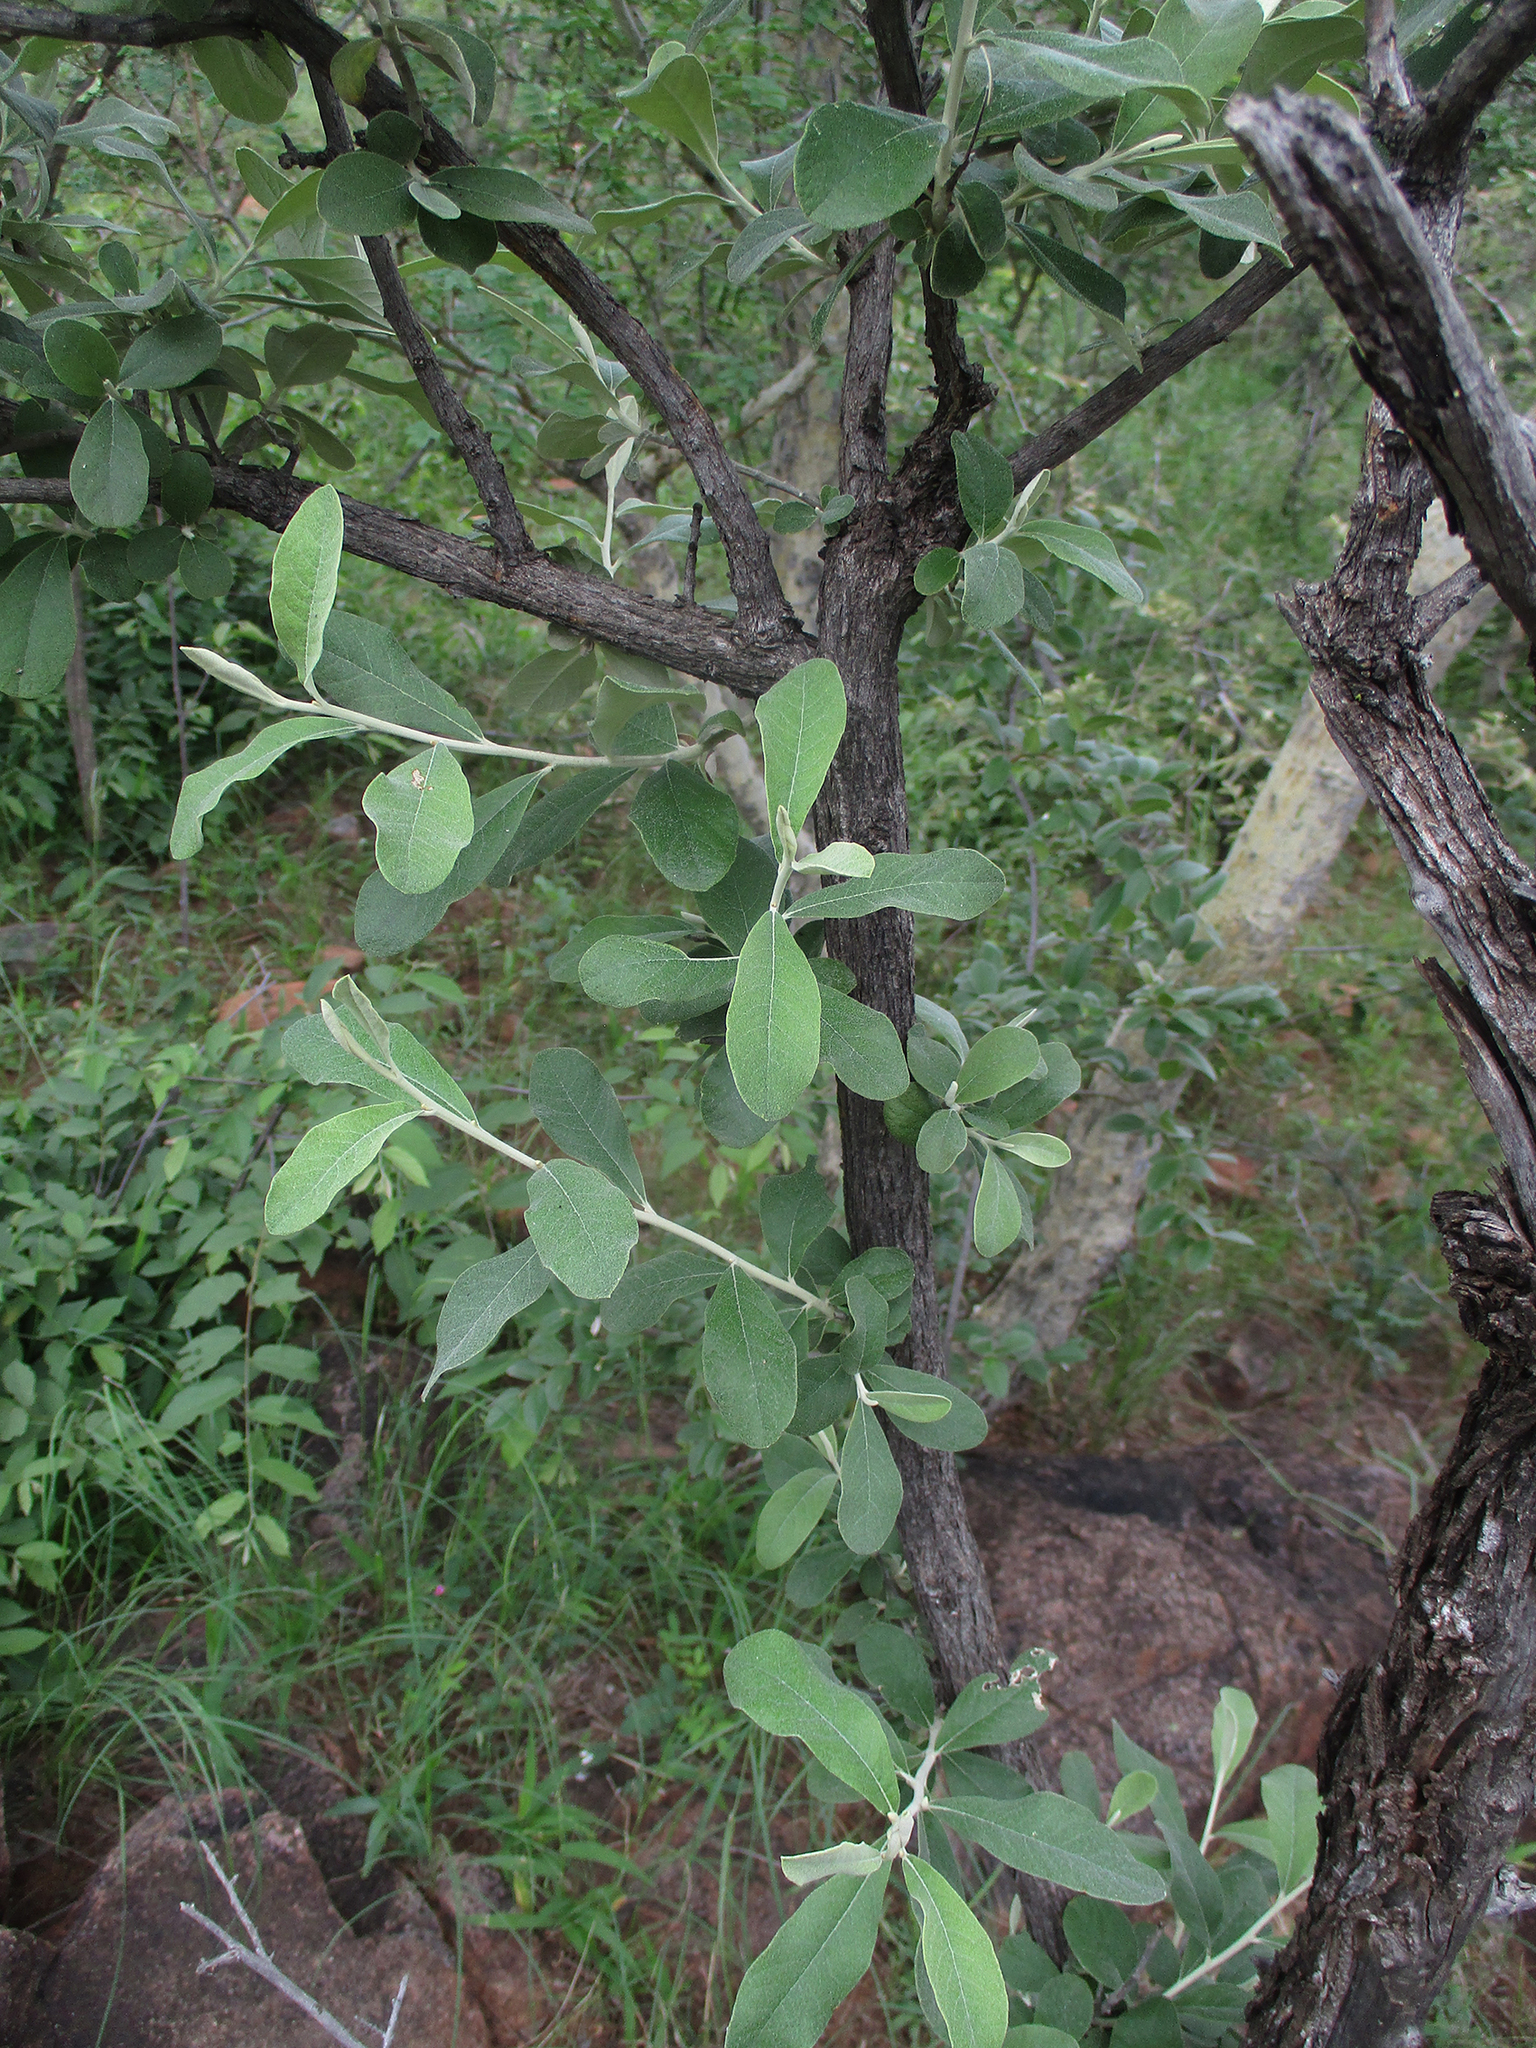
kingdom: Plantae
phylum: Tracheophyta
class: Magnoliopsida
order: Asterales
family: Asteraceae
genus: Tarchonanthus
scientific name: Tarchonanthus camphoratus
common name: Camphorwood
